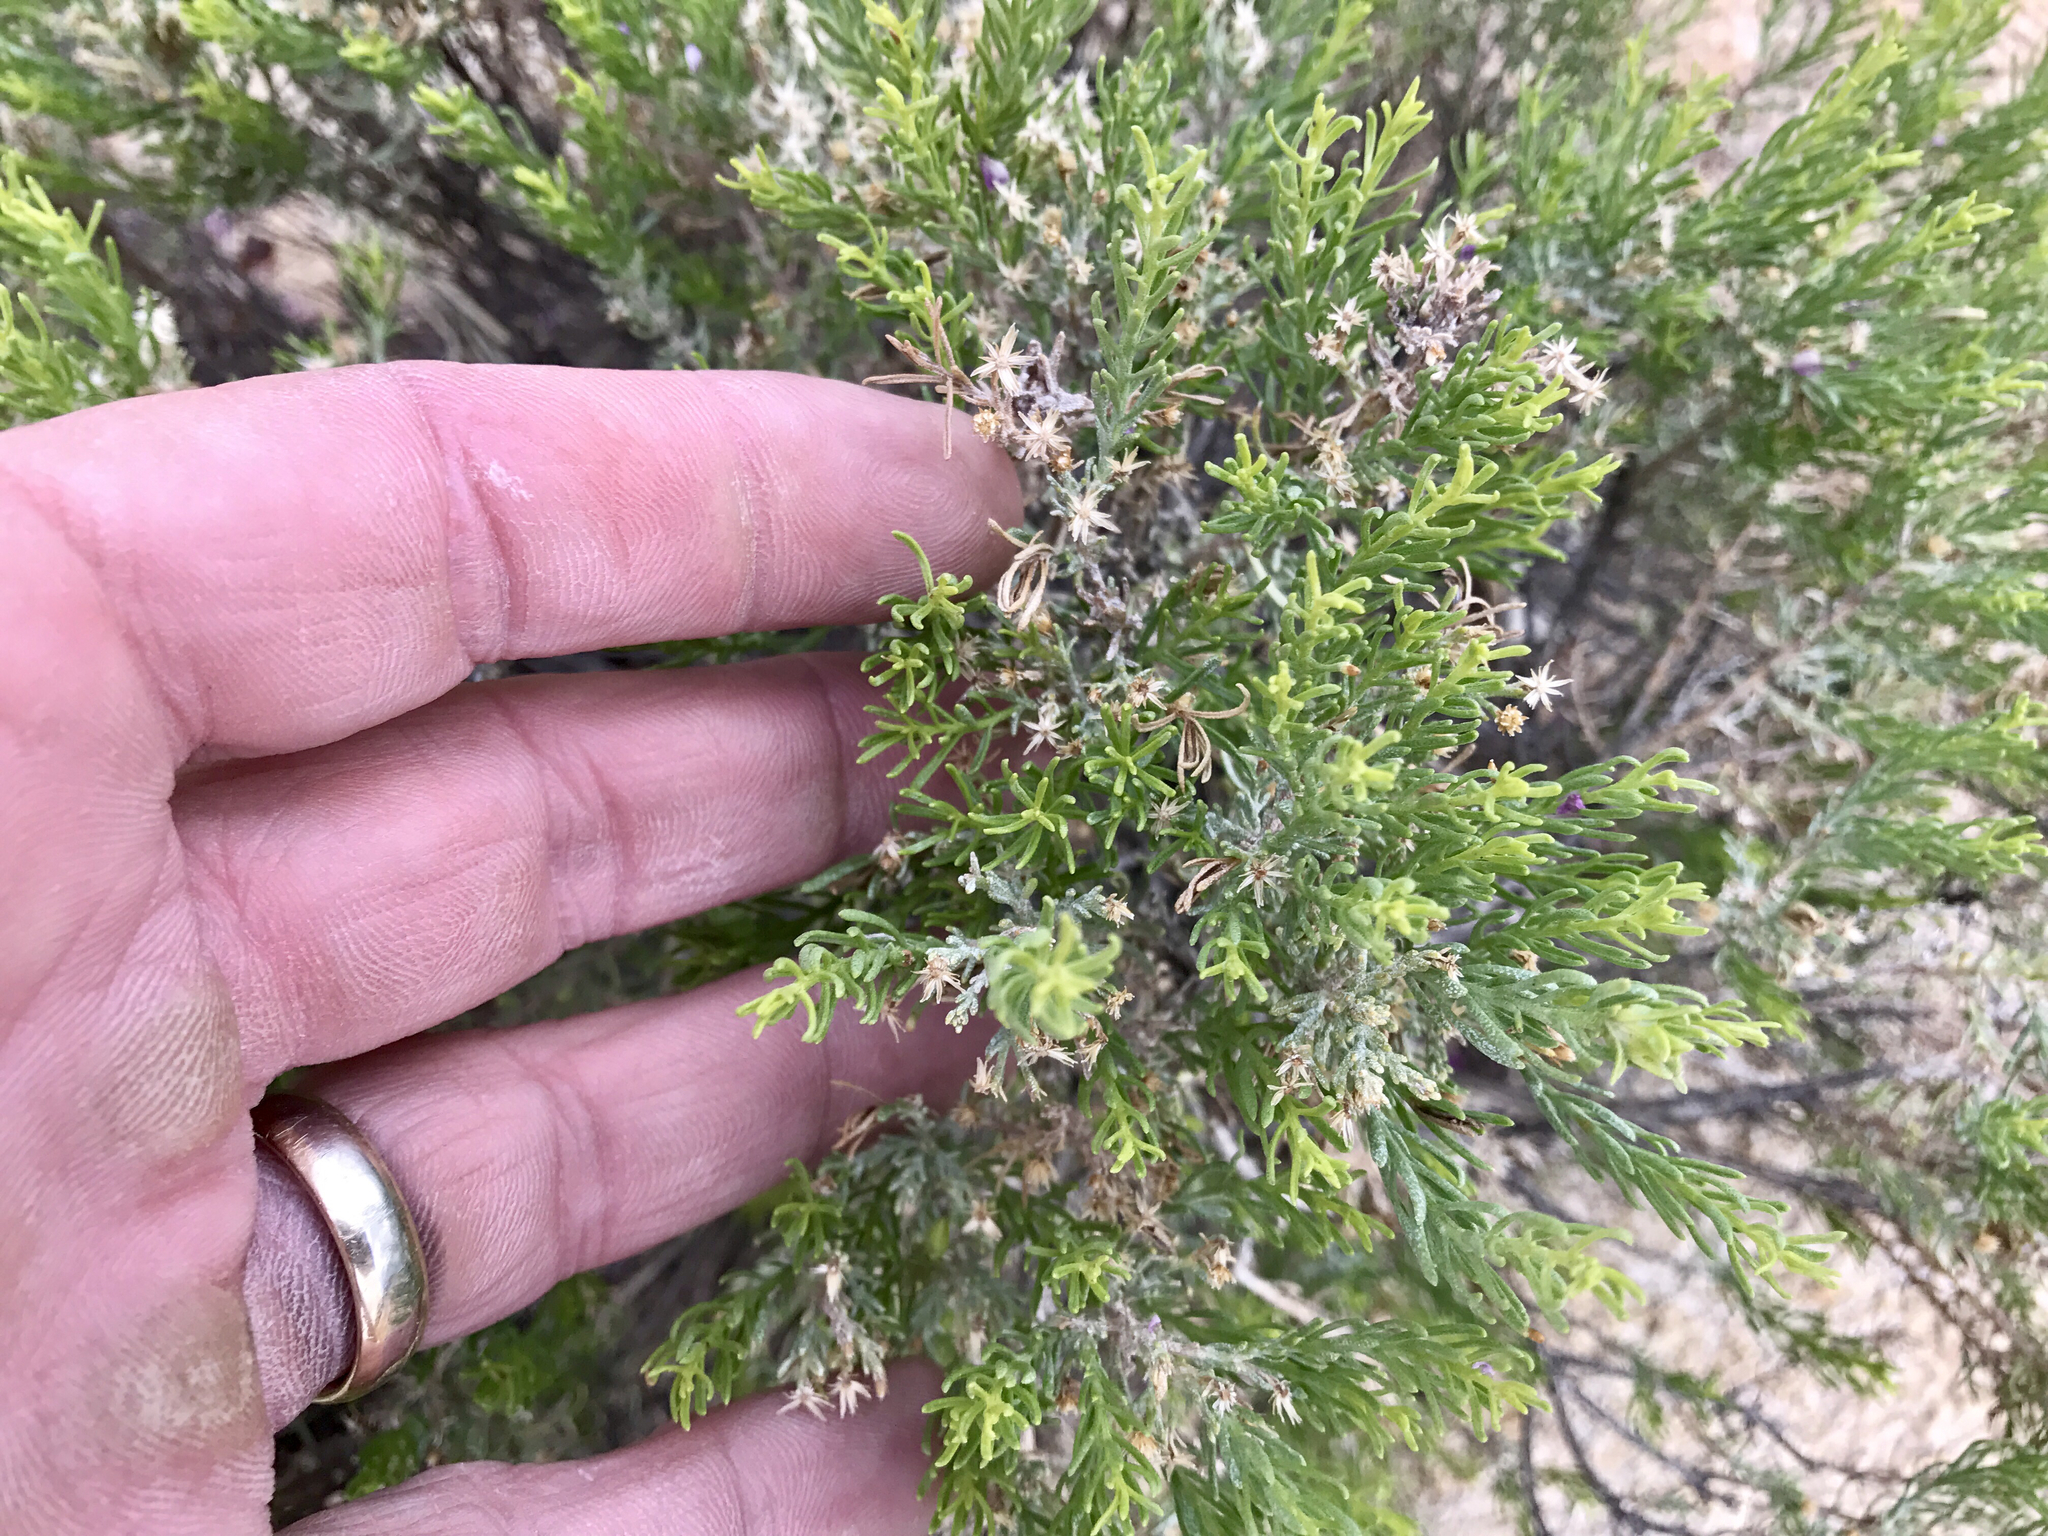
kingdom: Plantae
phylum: Tracheophyta
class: Magnoliopsida
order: Asterales
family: Asteraceae
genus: Ericameria
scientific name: Ericameria laricifolia
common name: Turpentine-bush
